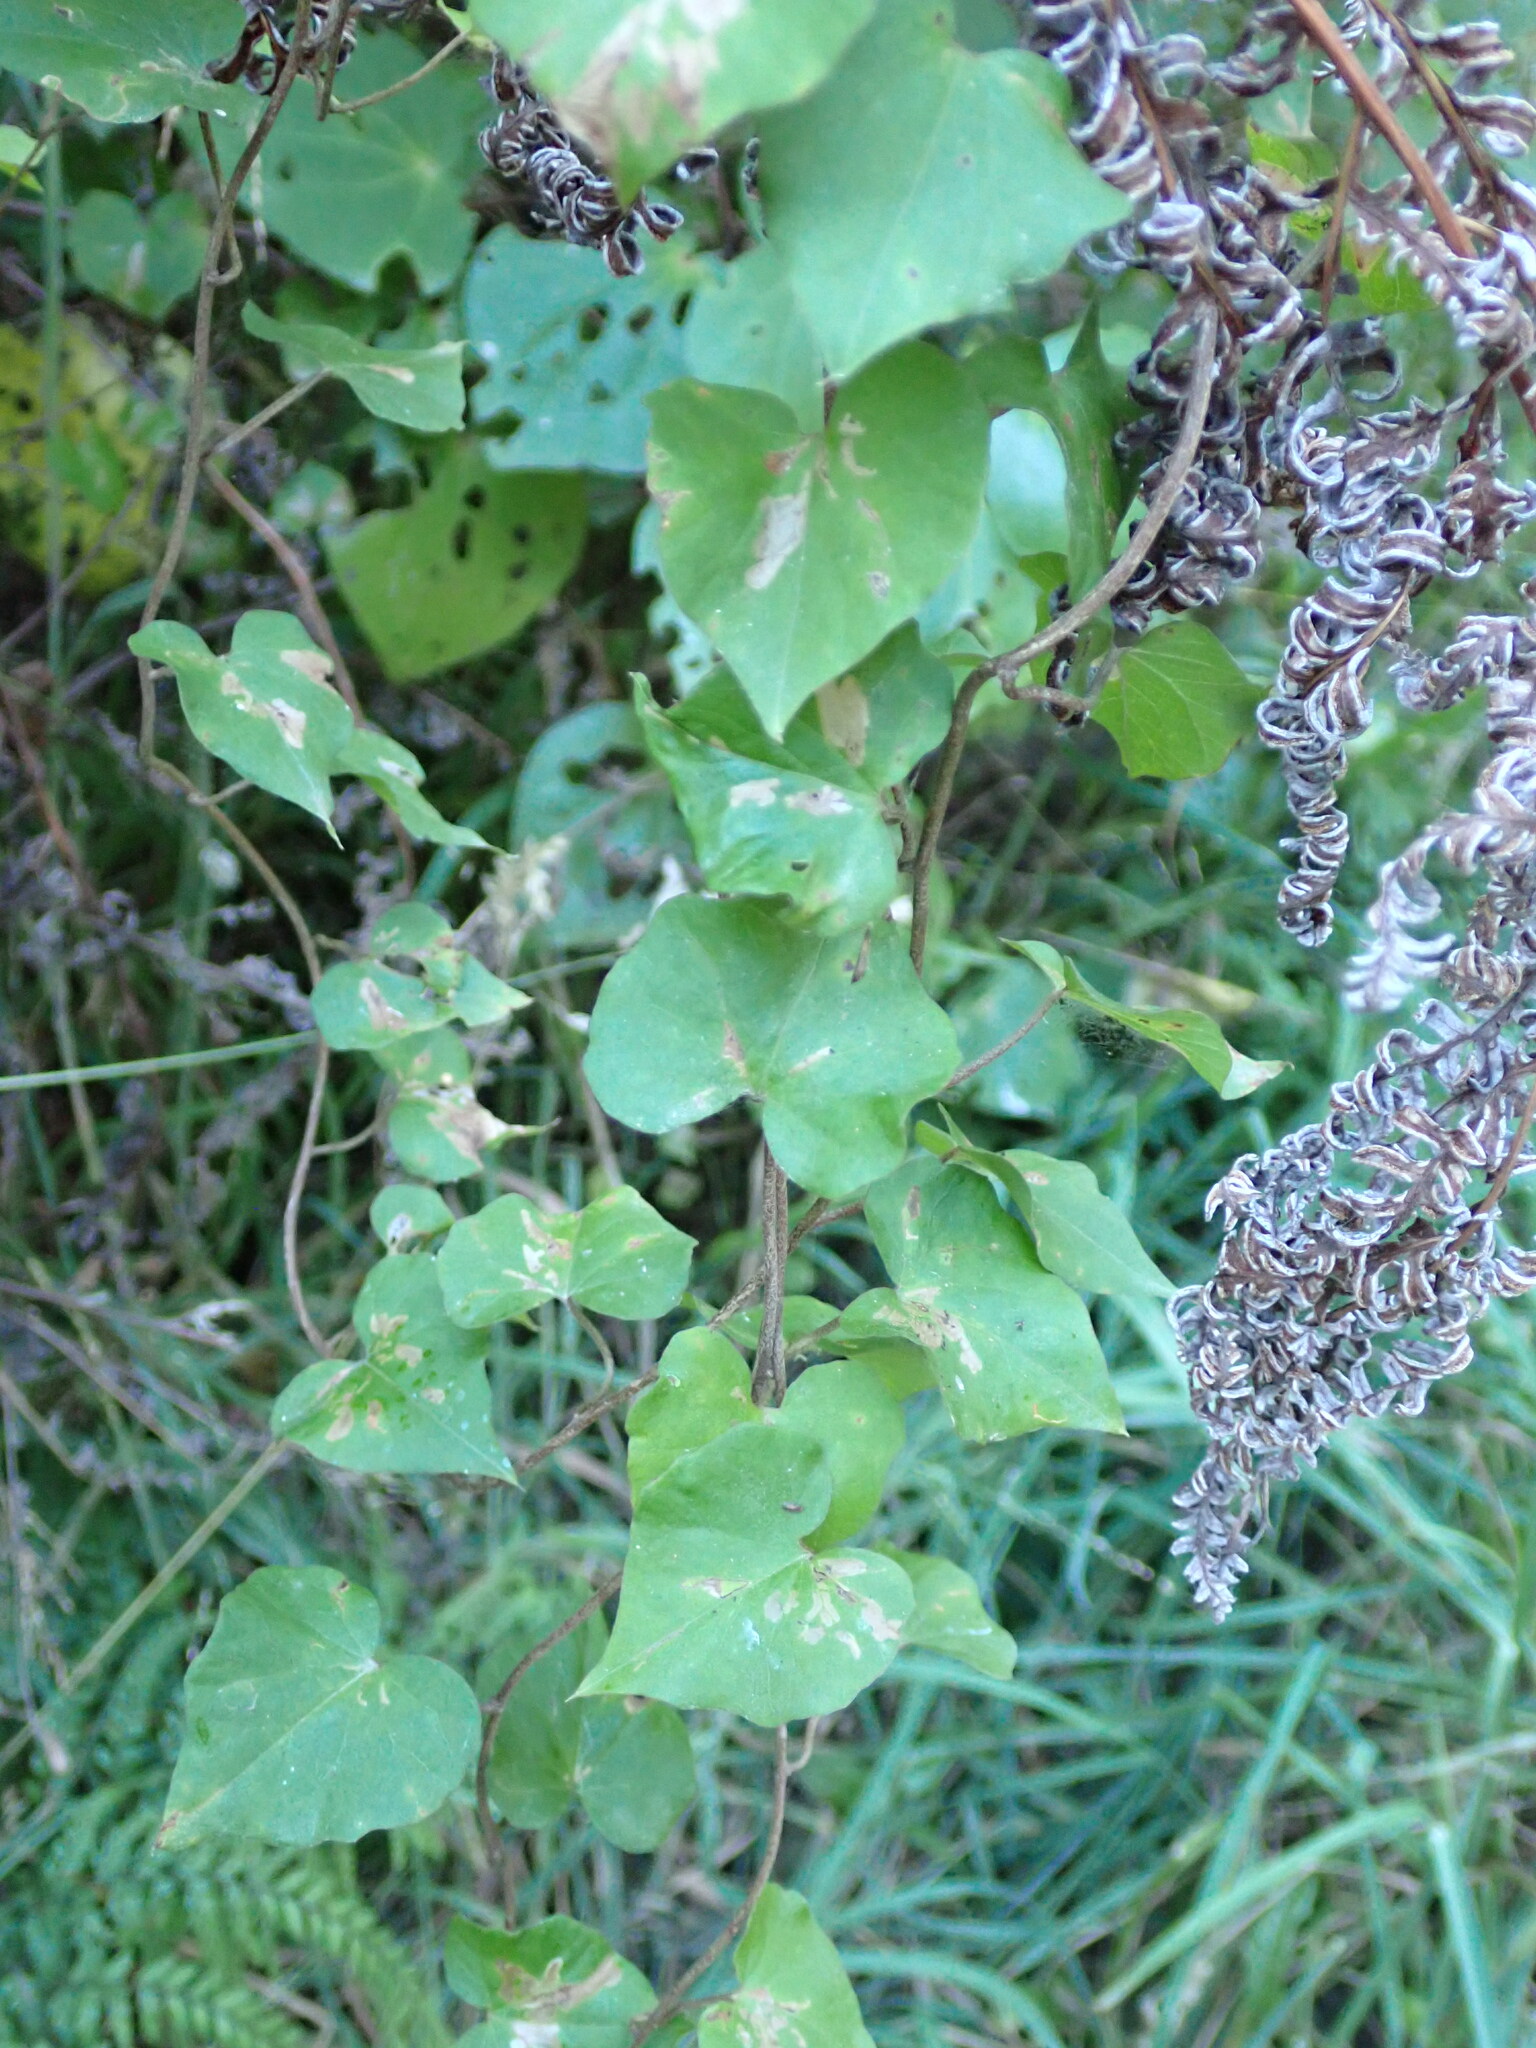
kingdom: Plantae
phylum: Tracheophyta
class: Magnoliopsida
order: Solanales
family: Convolvulaceae
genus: Calystegia
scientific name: Calystegia tuguriorum
